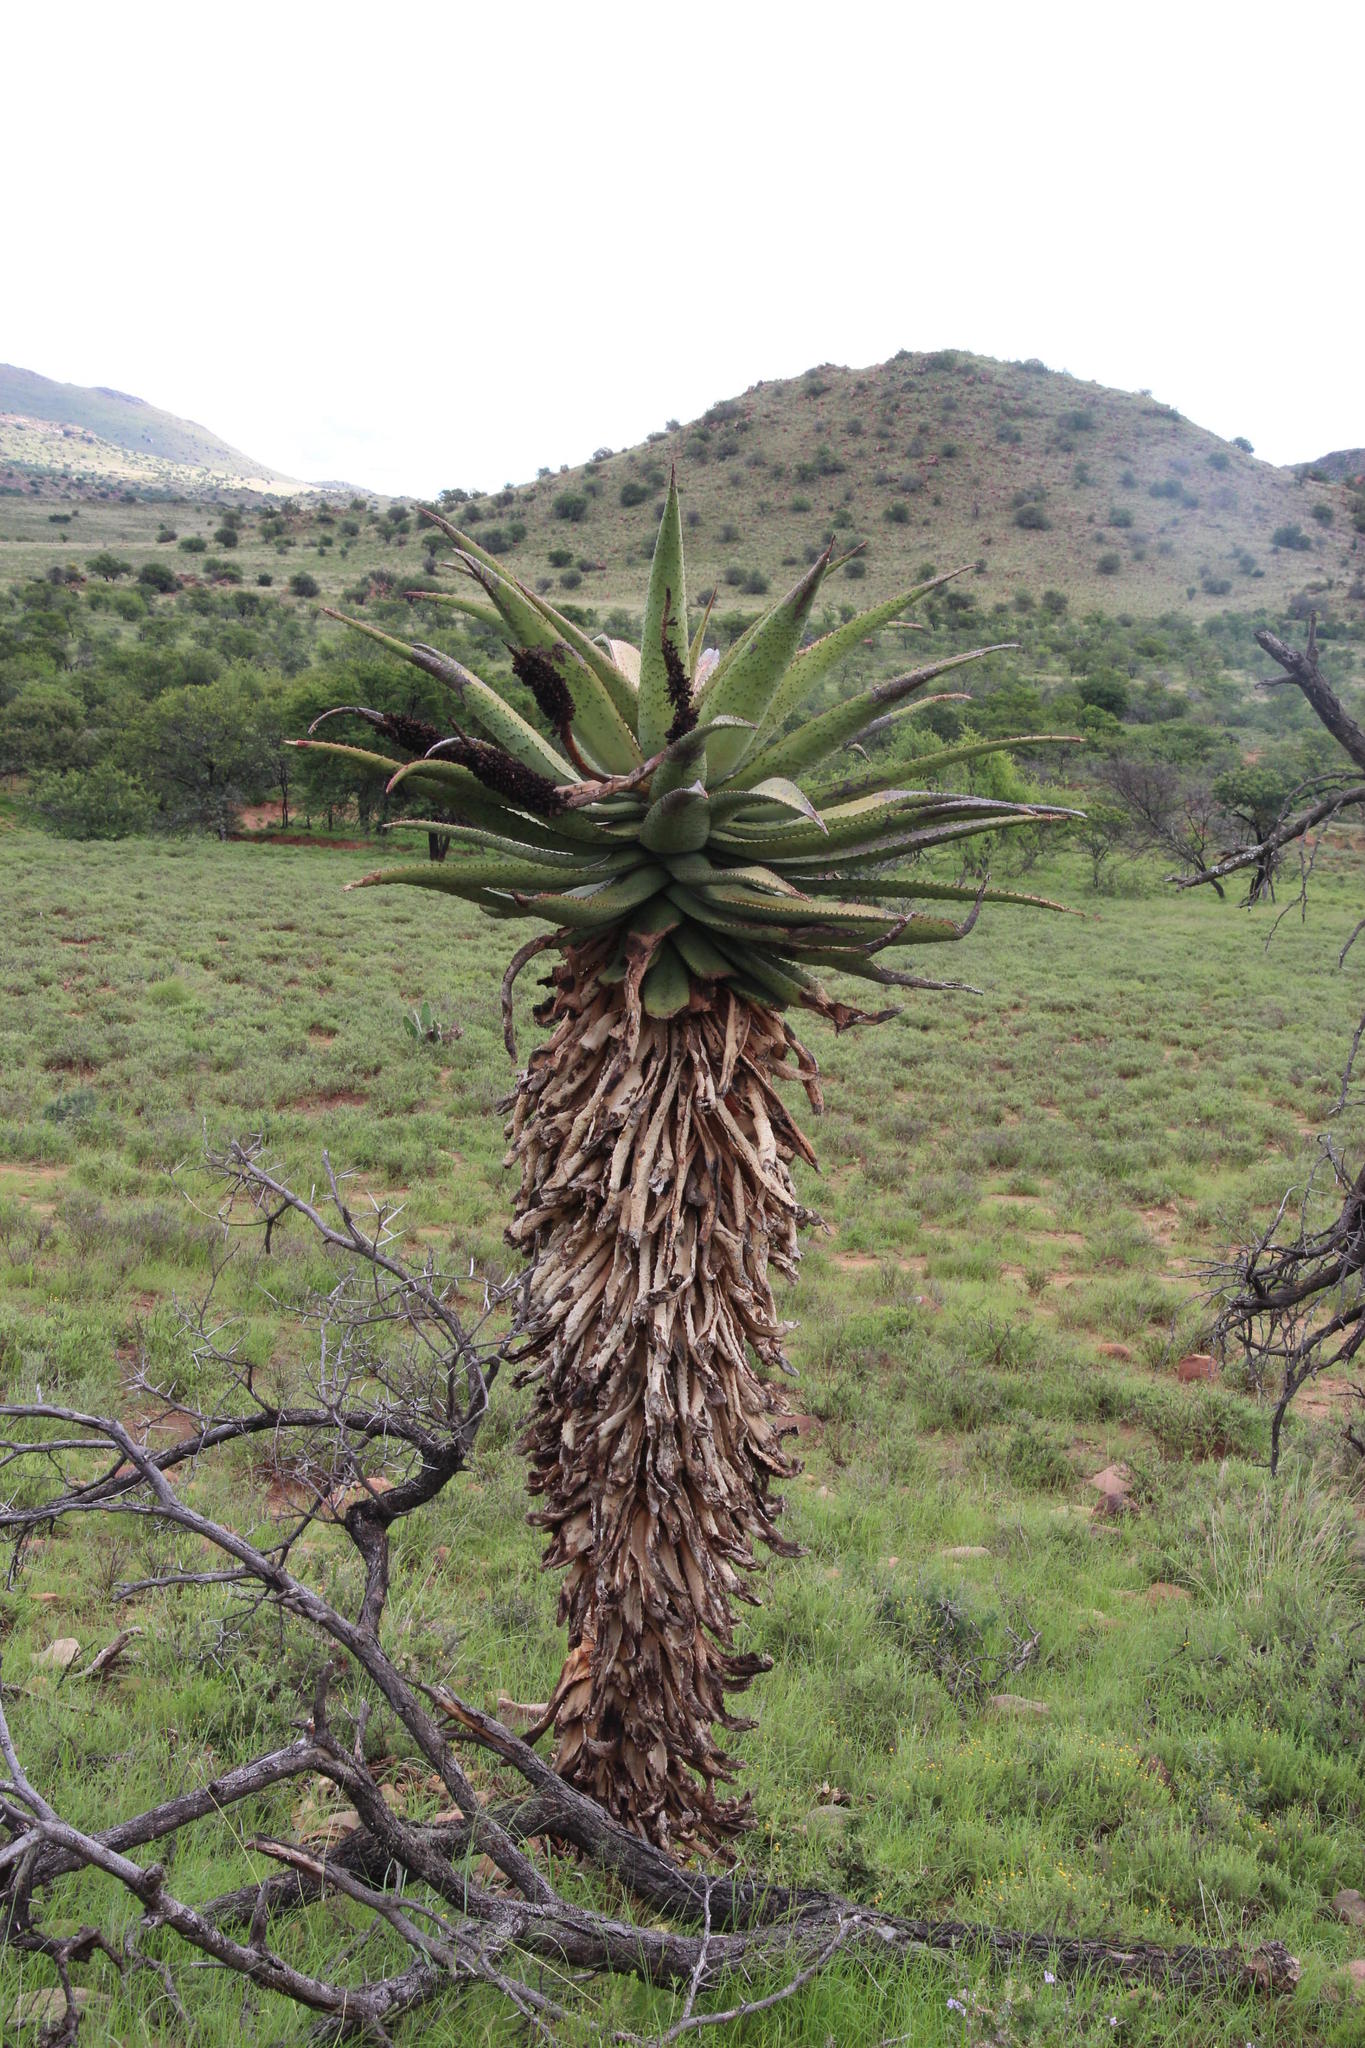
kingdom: Plantae
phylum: Tracheophyta
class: Liliopsida
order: Asparagales
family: Asphodelaceae
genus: Aloe
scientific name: Aloe ferox
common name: Bitter aloe
